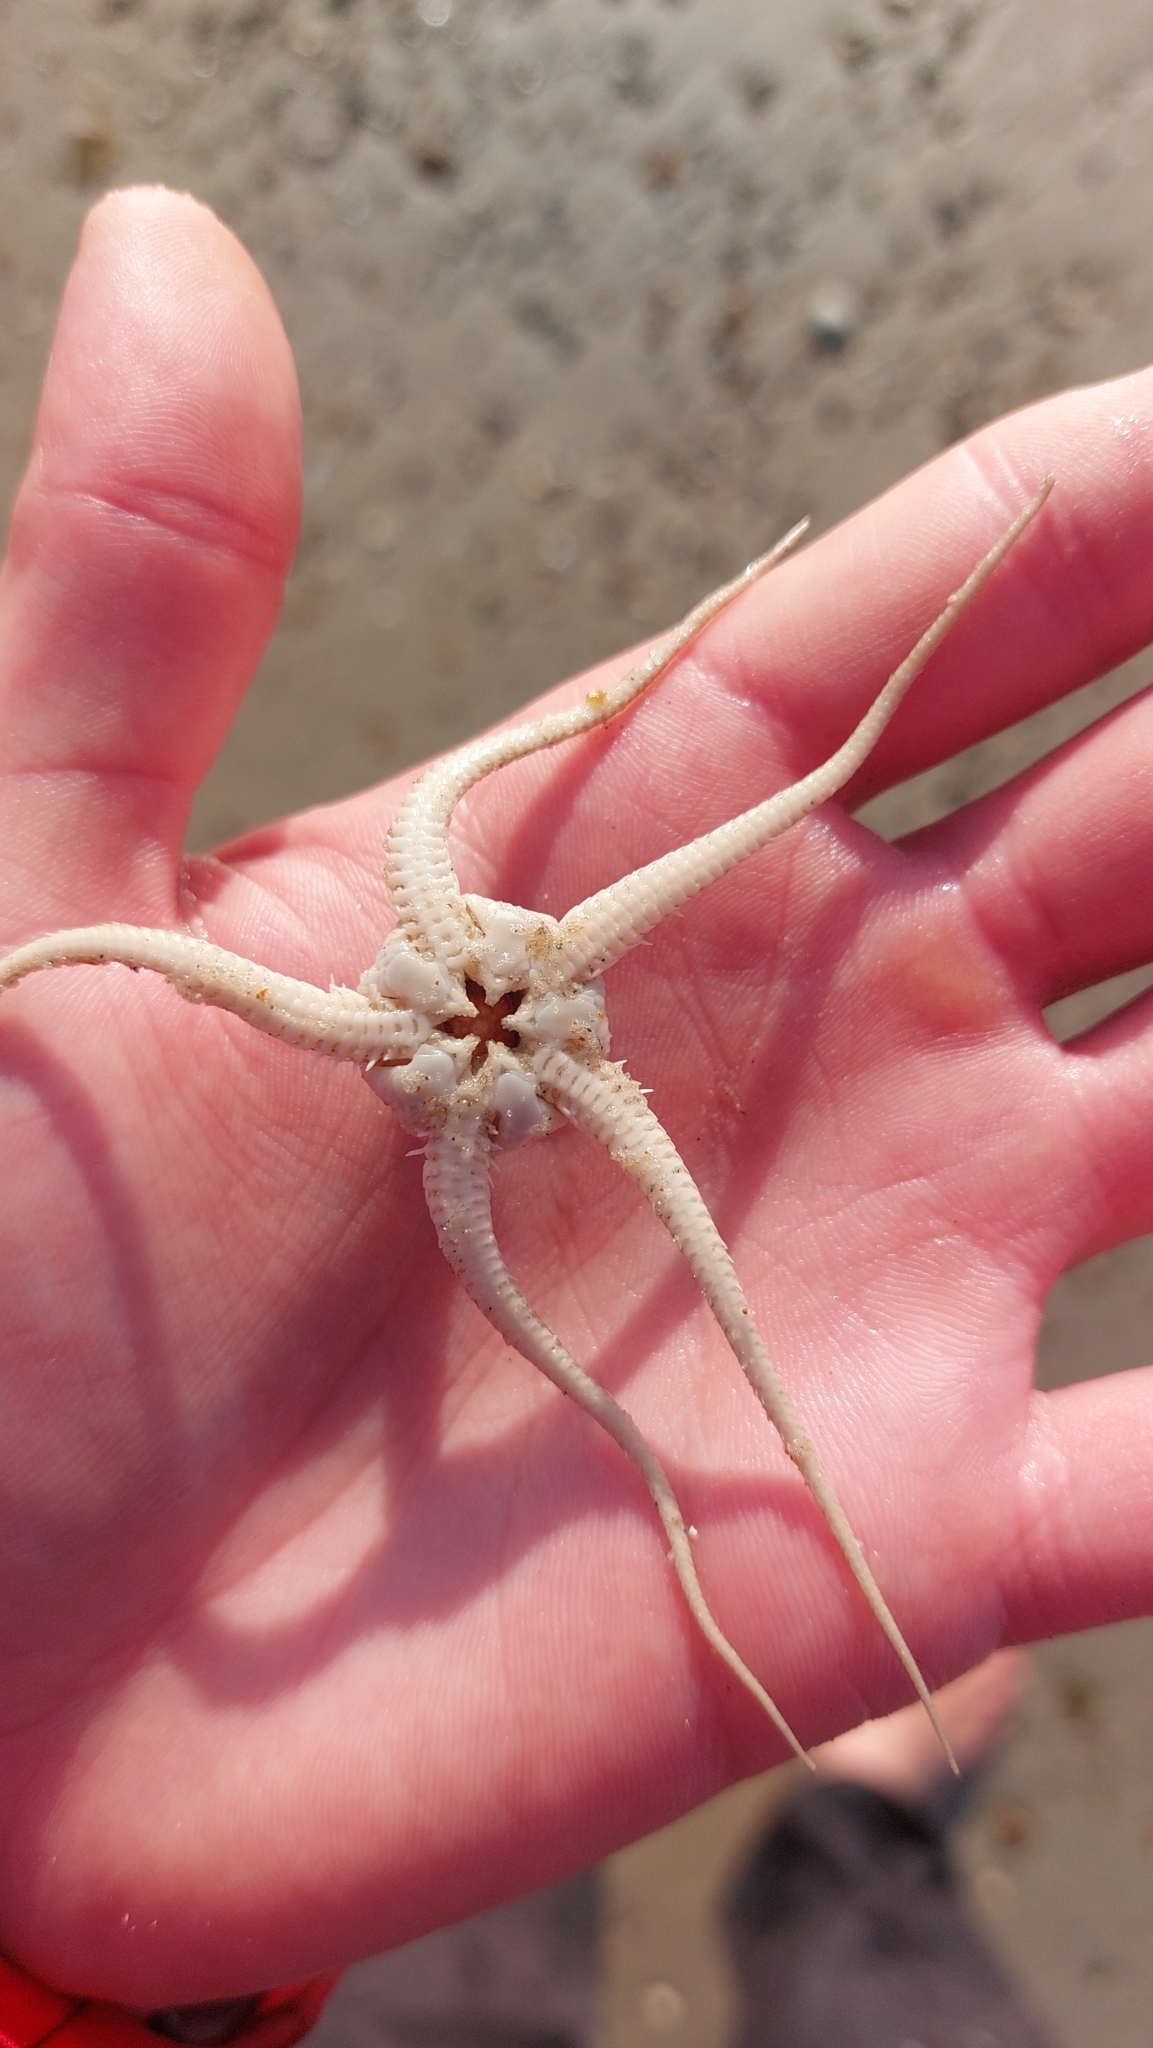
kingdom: Animalia
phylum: Echinodermata
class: Ophiuroidea
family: Ophiuridae
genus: Ophiura
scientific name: Ophiura ophiura
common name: Serpent star
